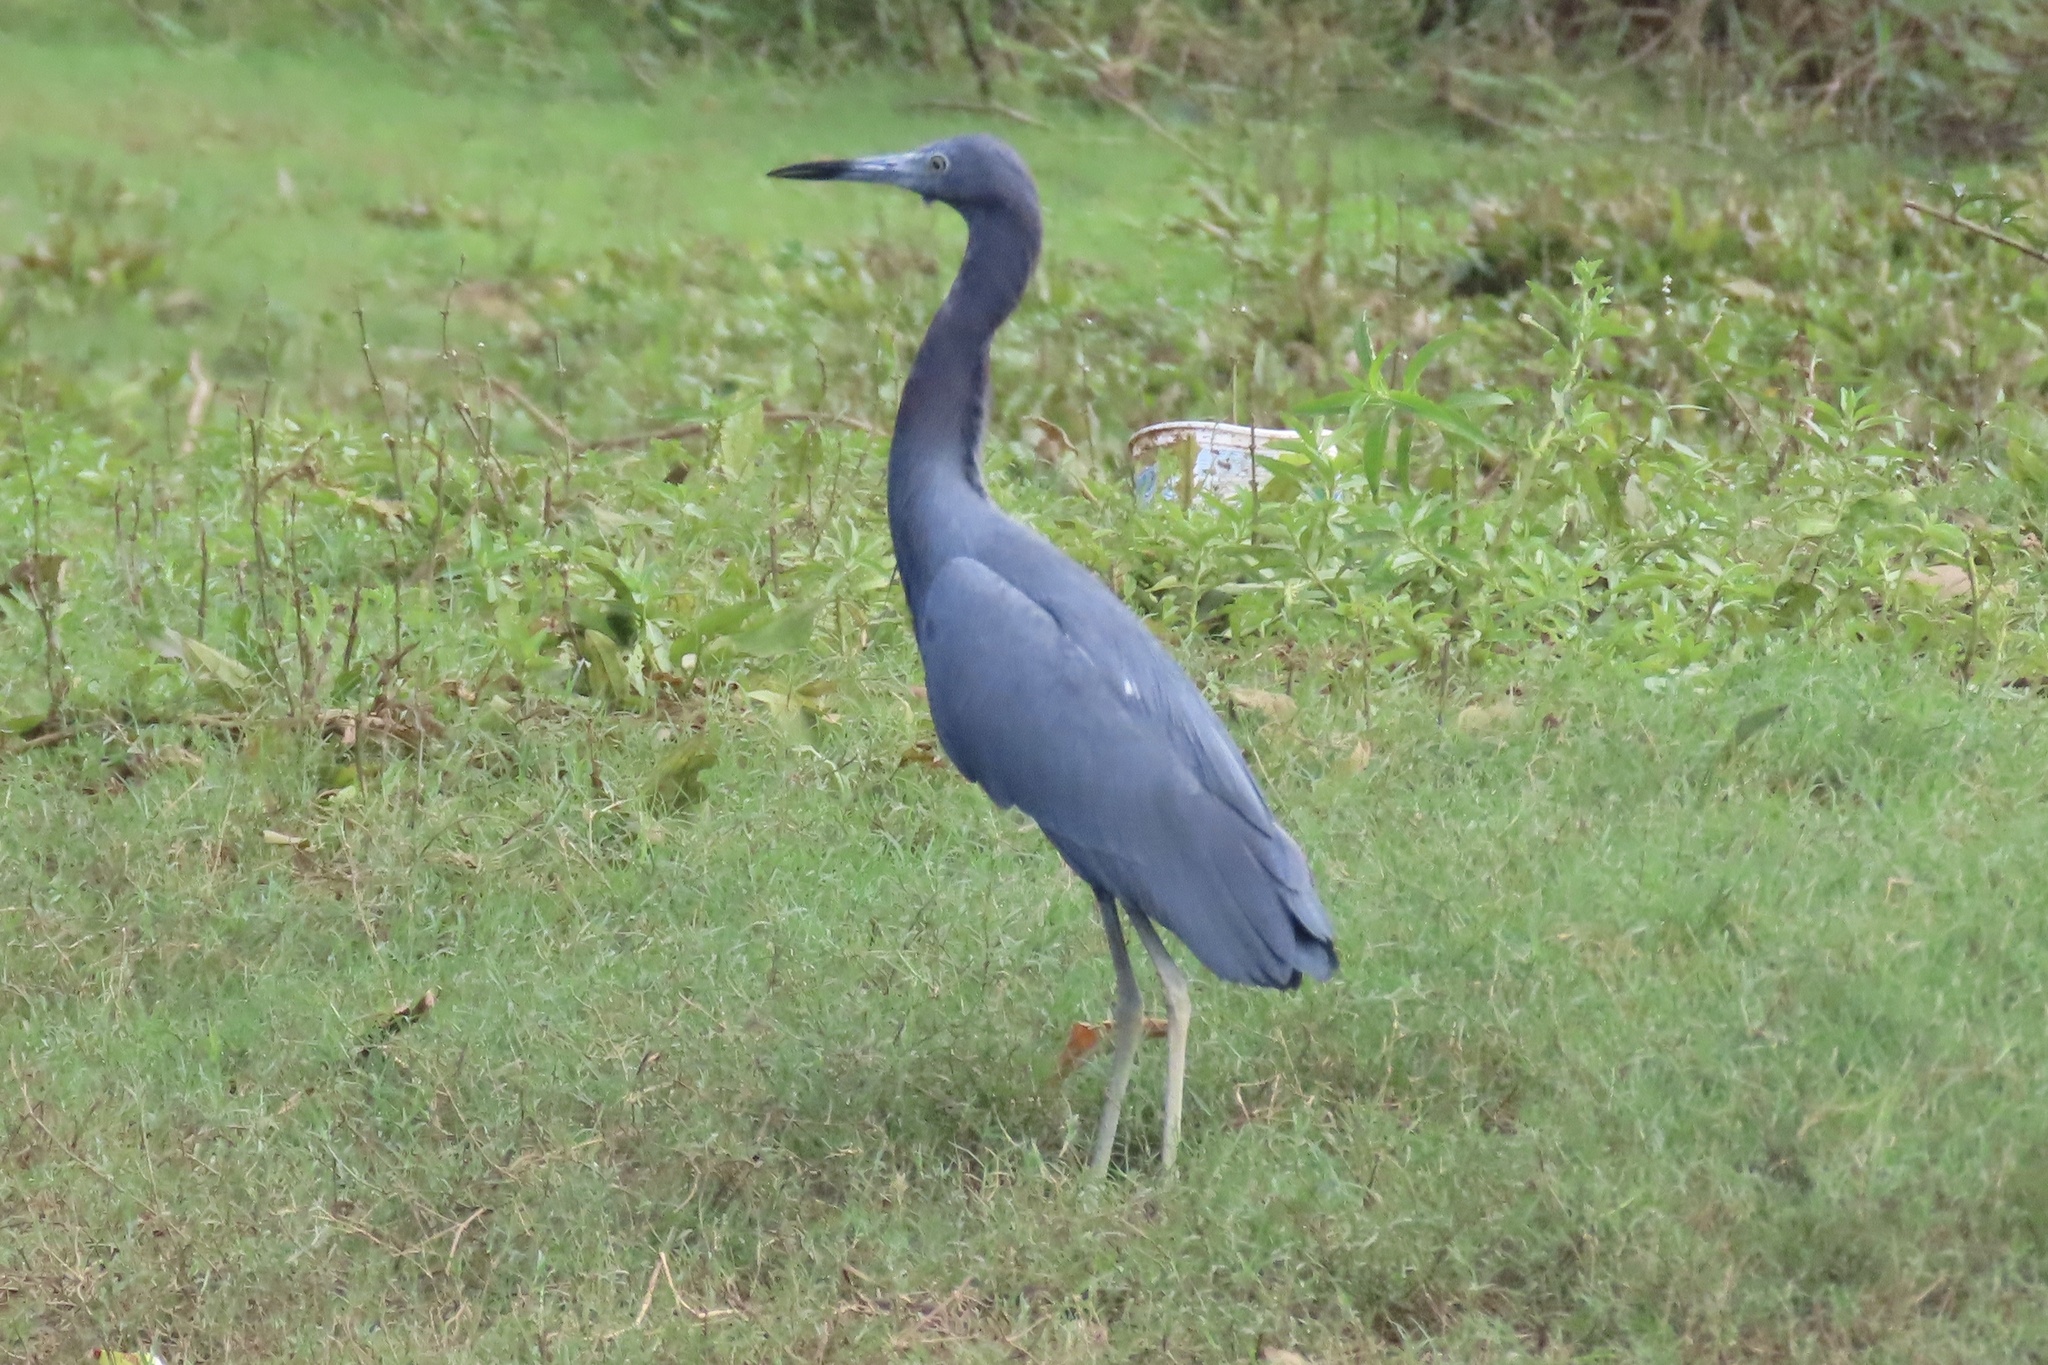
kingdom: Animalia
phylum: Chordata
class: Aves
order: Pelecaniformes
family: Ardeidae
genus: Egretta
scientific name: Egretta caerulea
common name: Little blue heron
